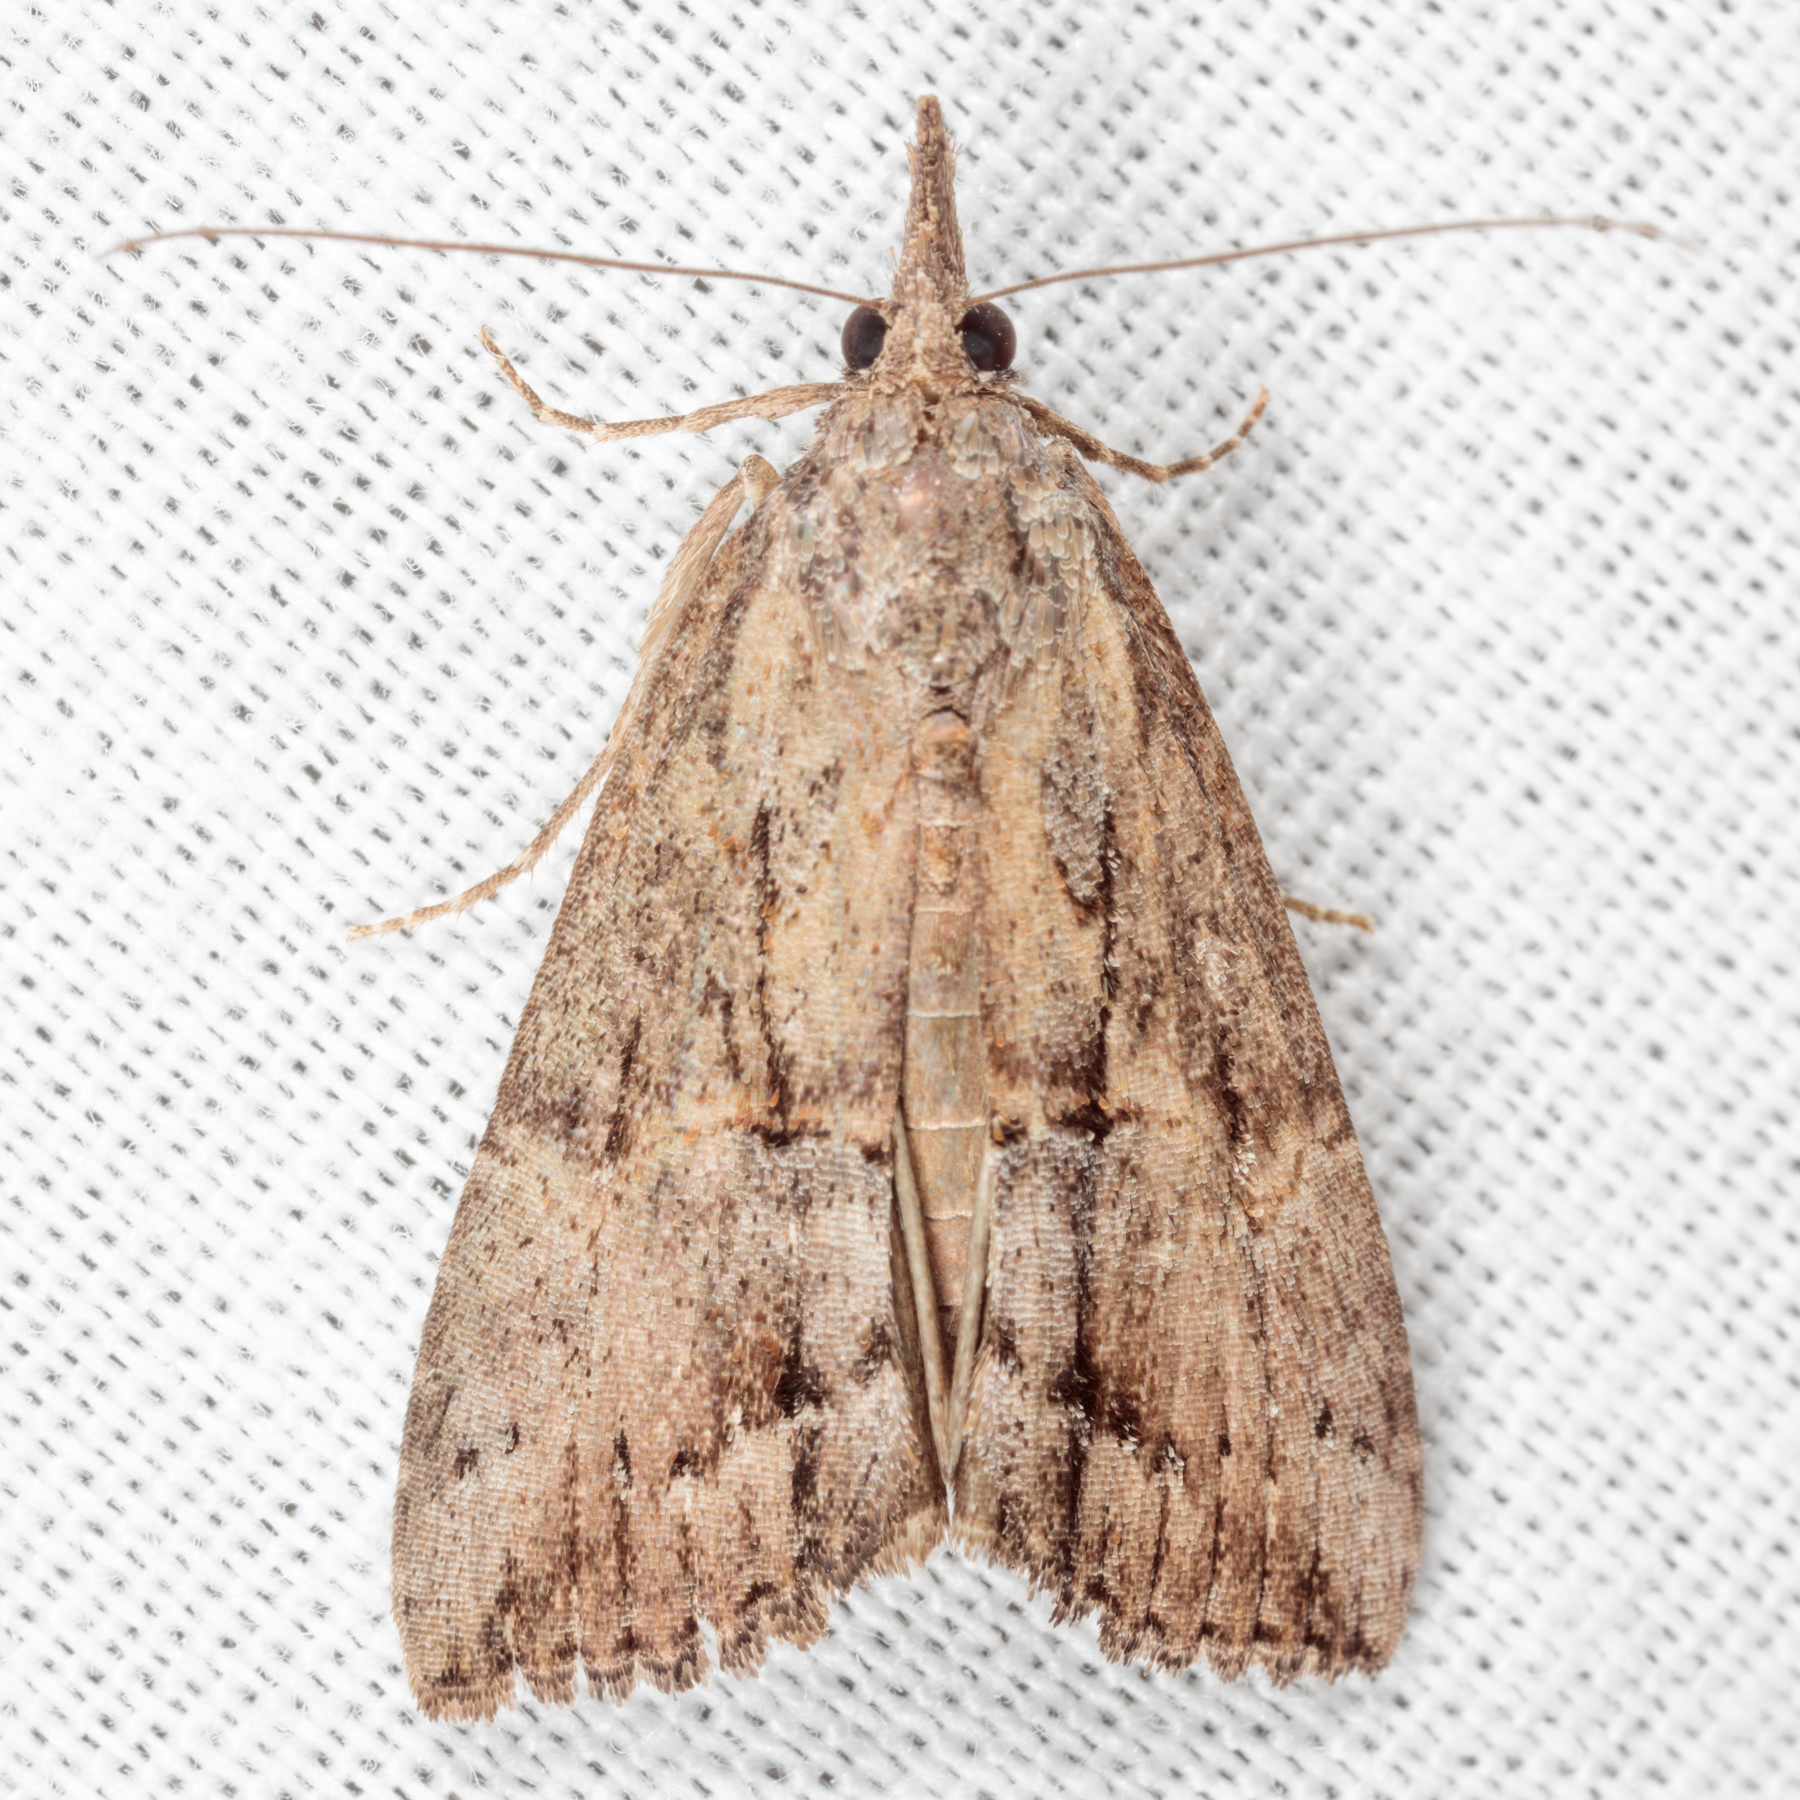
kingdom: Animalia
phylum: Arthropoda
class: Insecta
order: Lepidoptera
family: Erebidae
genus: Hypena
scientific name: Hypena scabra
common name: Green cloverworm
